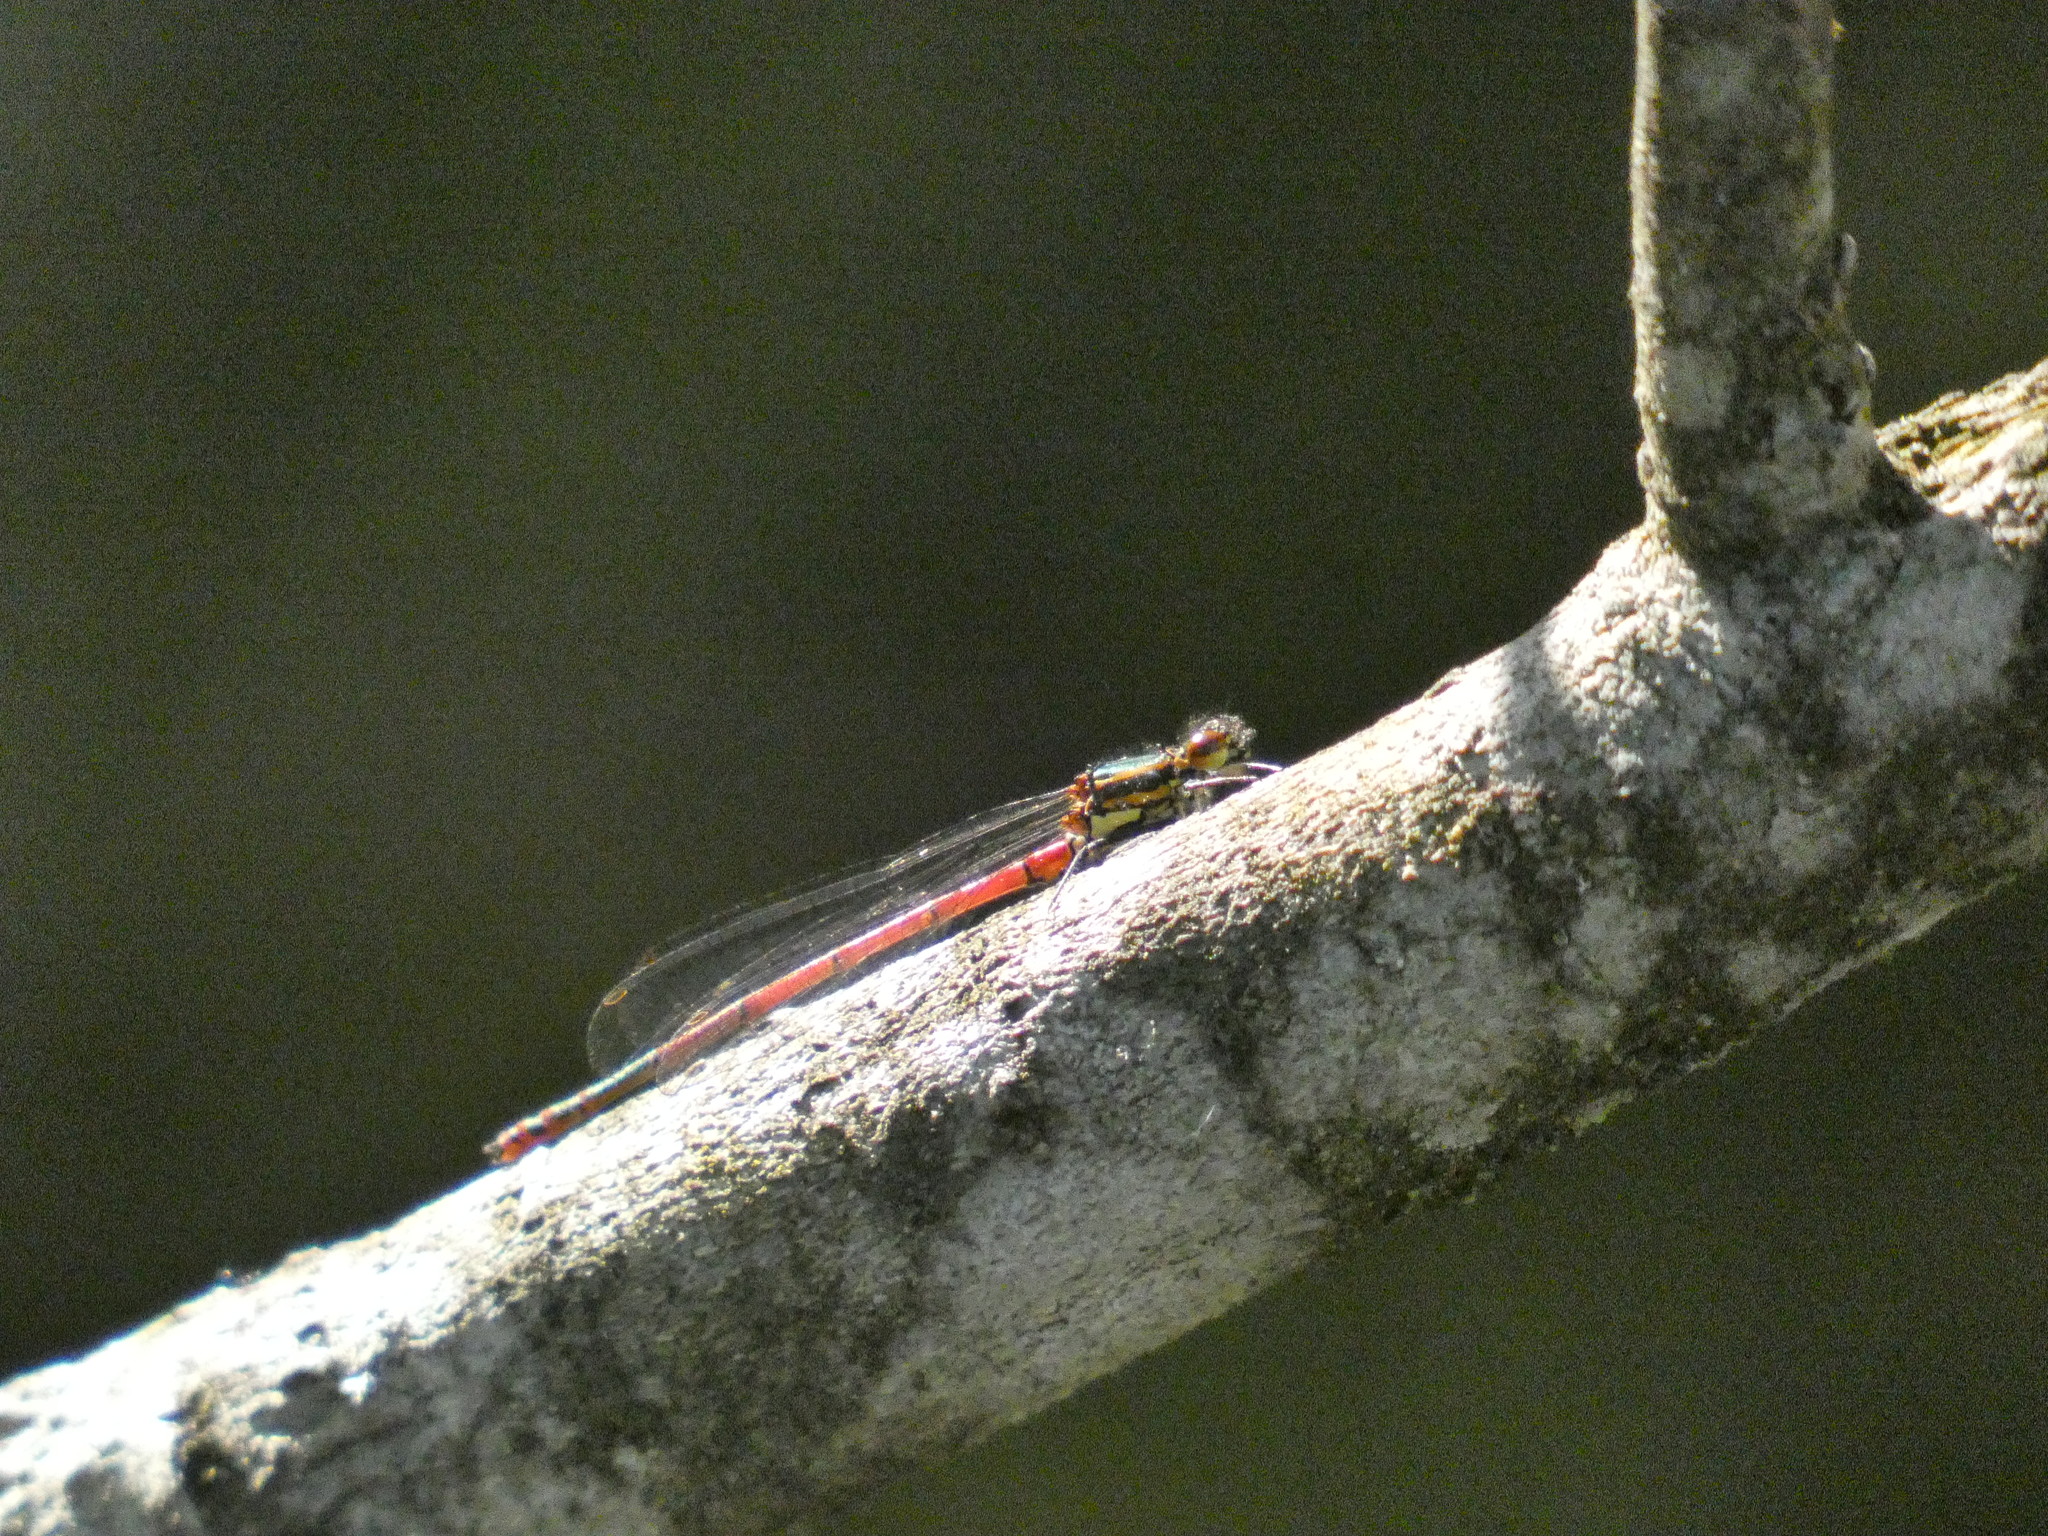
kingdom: Animalia
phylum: Arthropoda
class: Insecta
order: Odonata
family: Coenagrionidae
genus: Pyrrhosoma
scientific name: Pyrrhosoma nymphula
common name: Large red damsel
